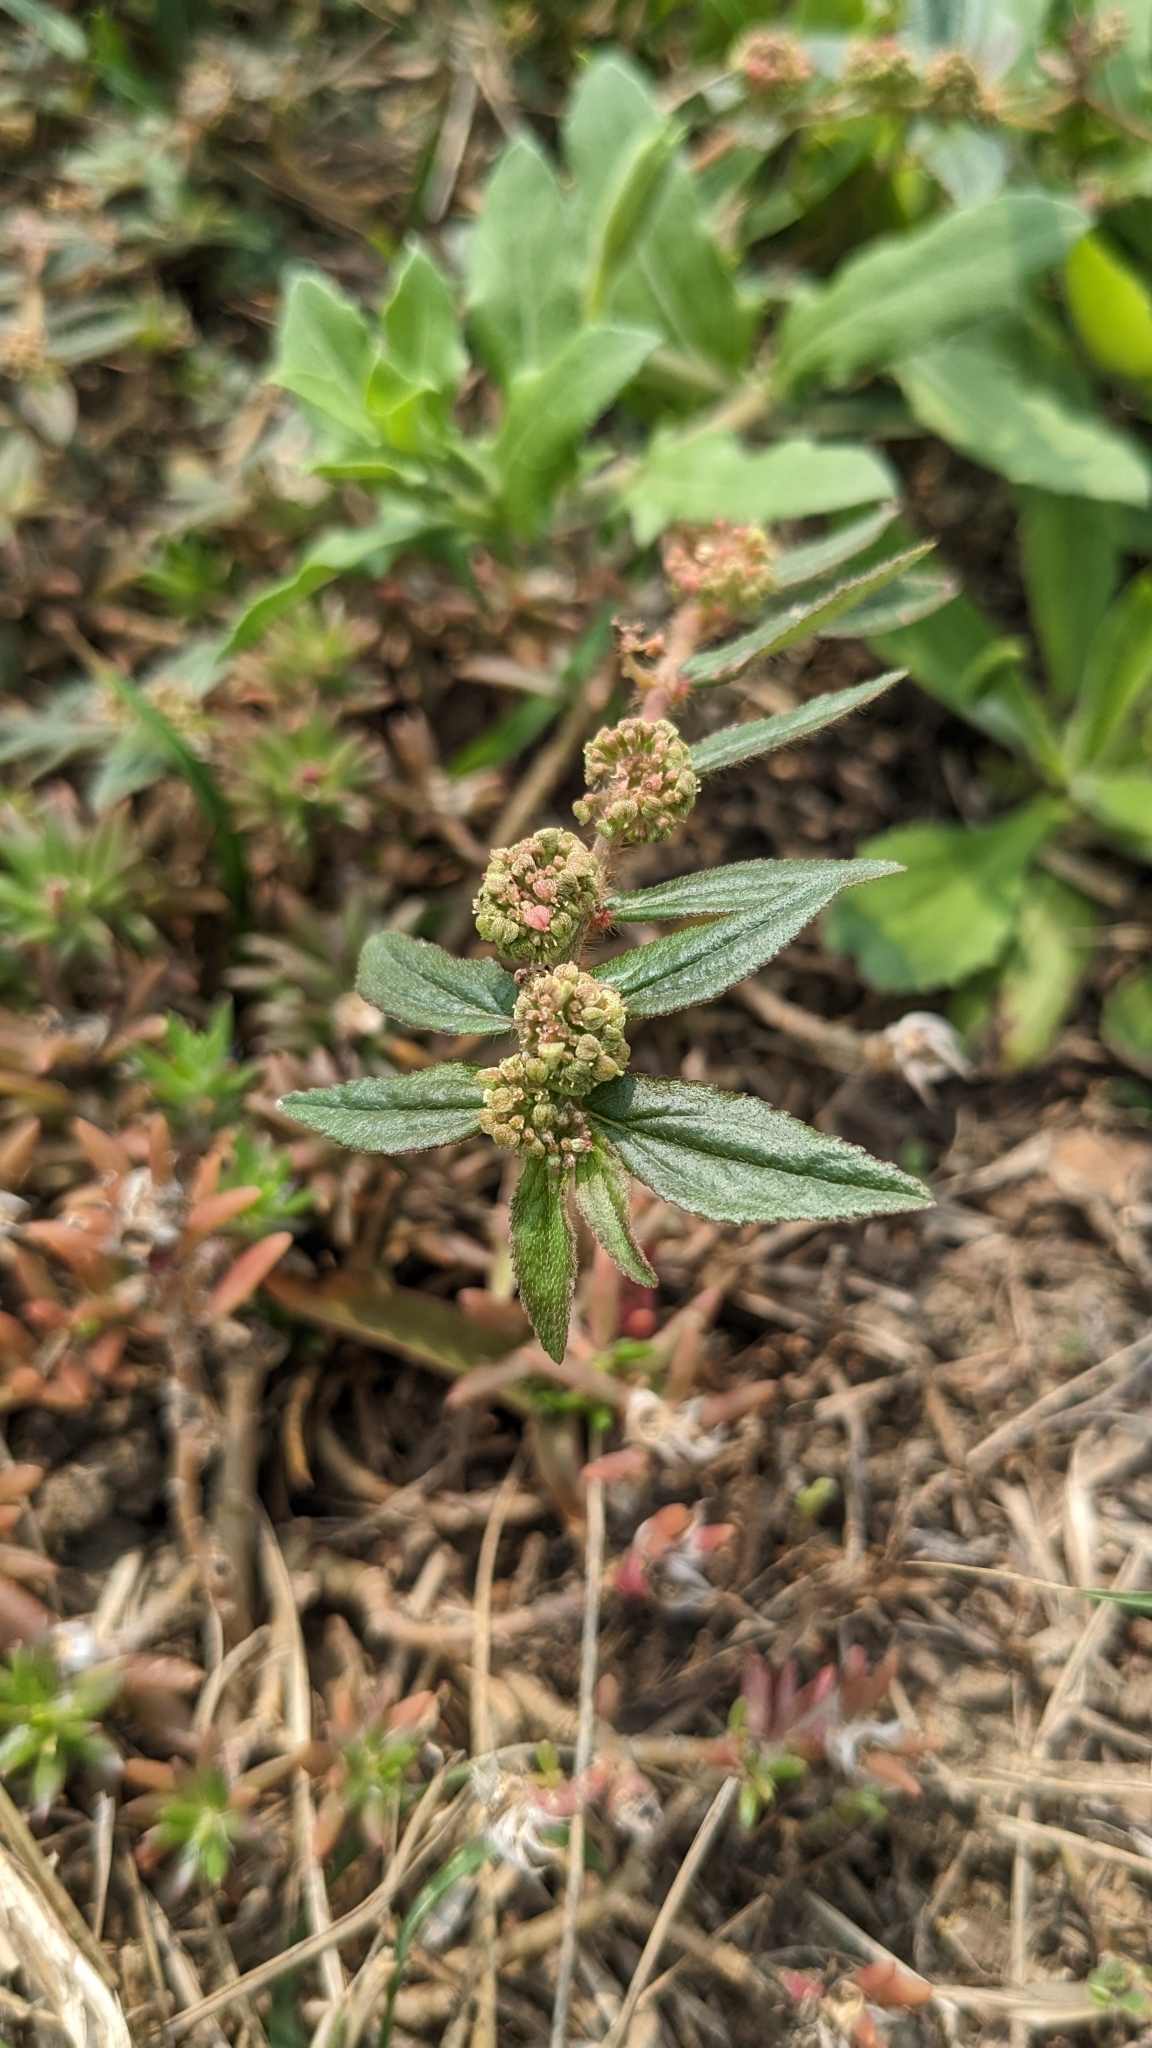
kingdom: Plantae
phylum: Tracheophyta
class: Magnoliopsida
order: Malpighiales
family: Euphorbiaceae
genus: Euphorbia
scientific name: Euphorbia hirta
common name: Pillpod sandmat
